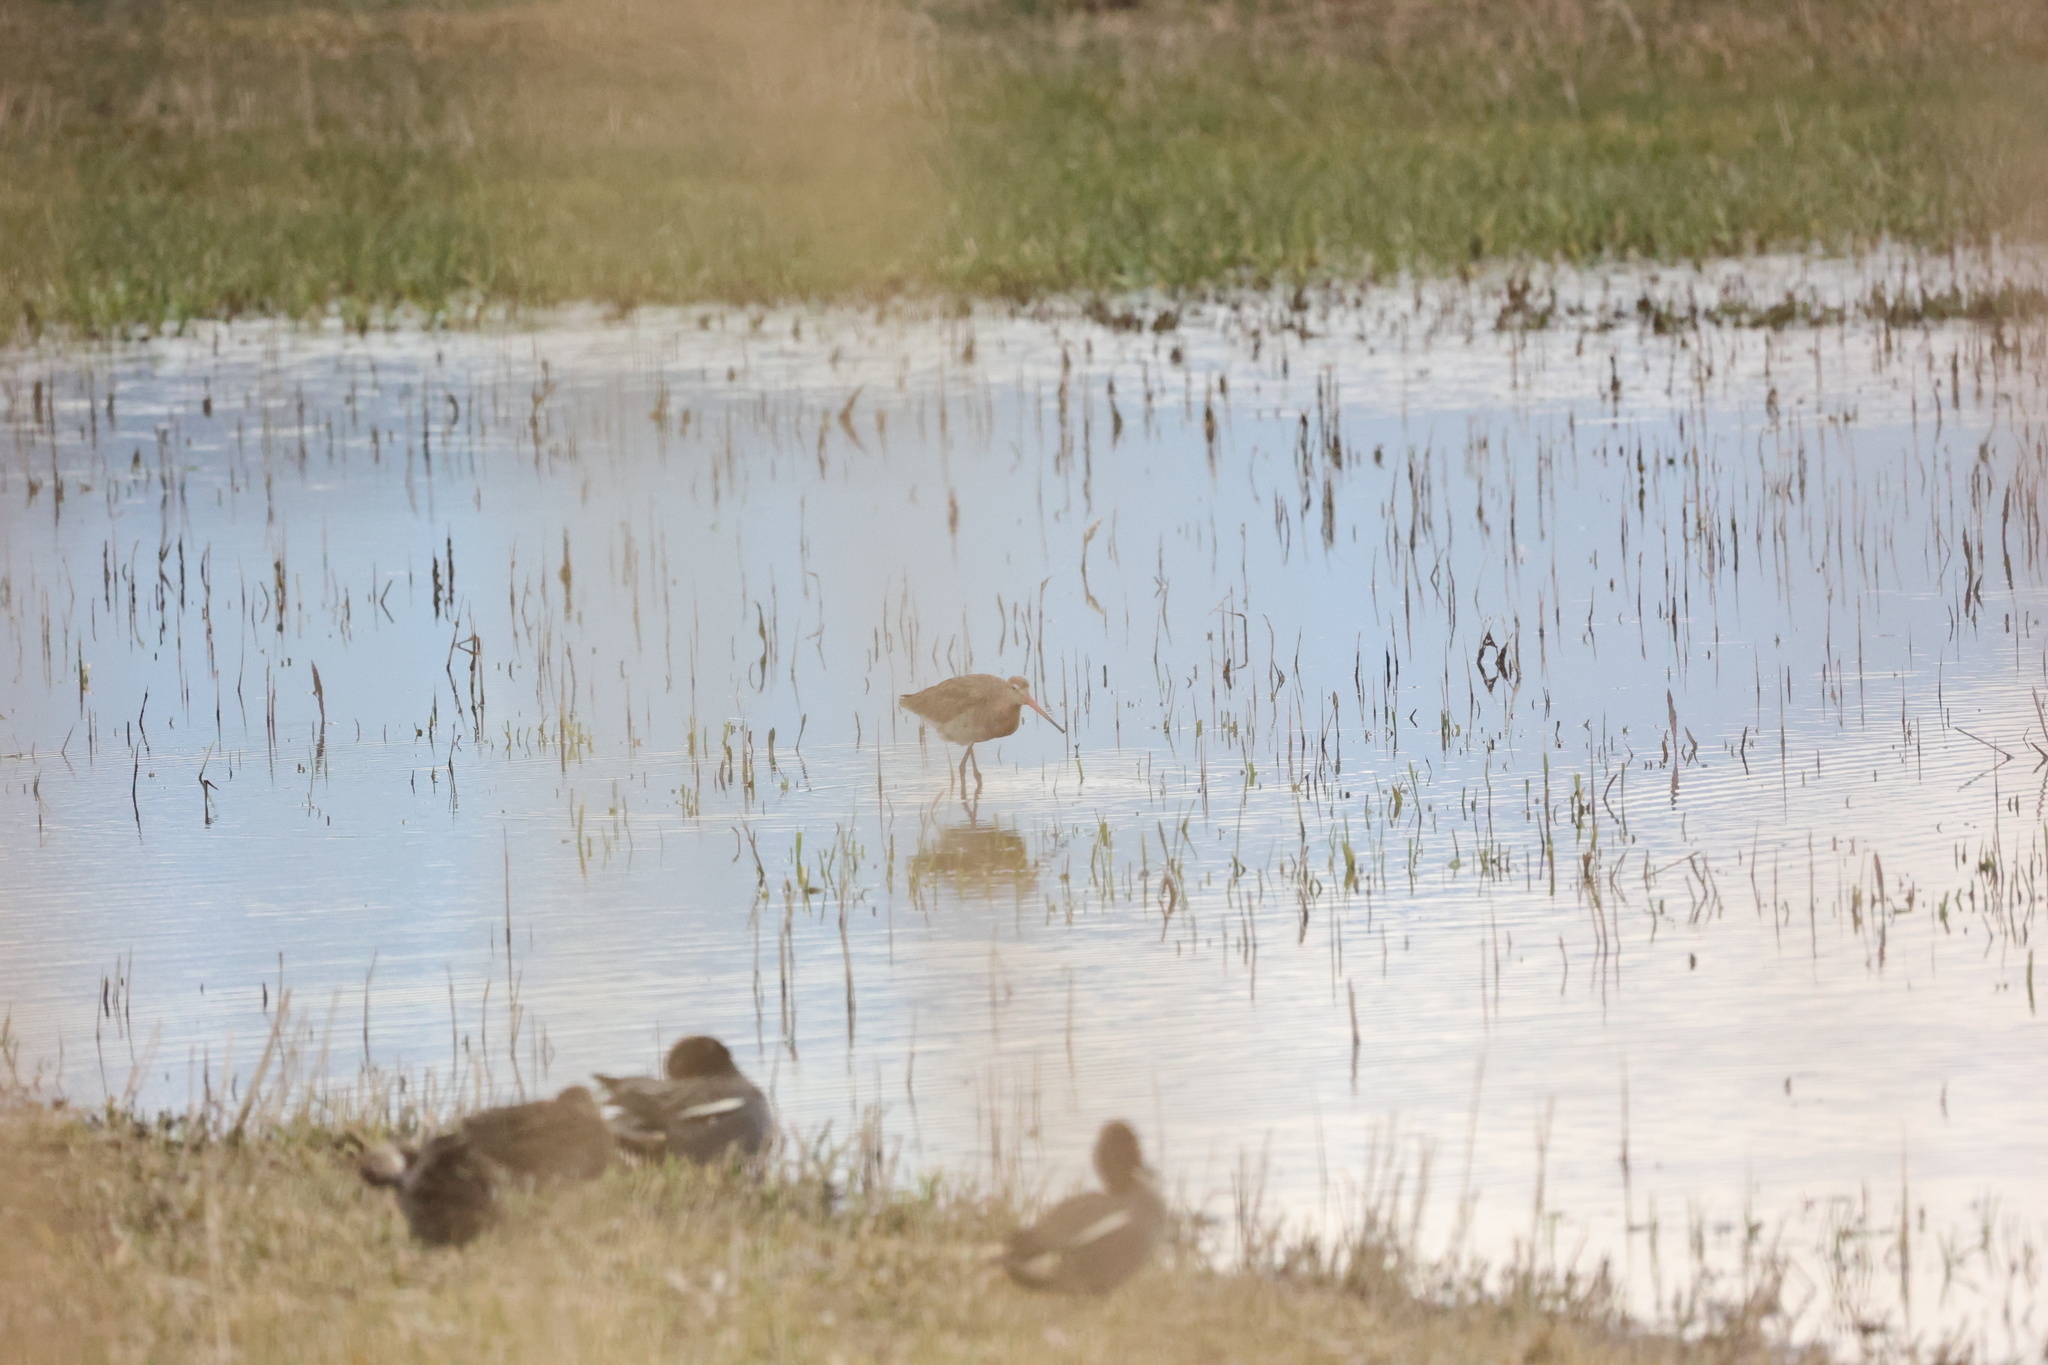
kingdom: Animalia
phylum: Chordata
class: Aves
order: Charadriiformes
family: Scolopacidae
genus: Limosa
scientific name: Limosa limosa
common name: Black-tailed godwit
